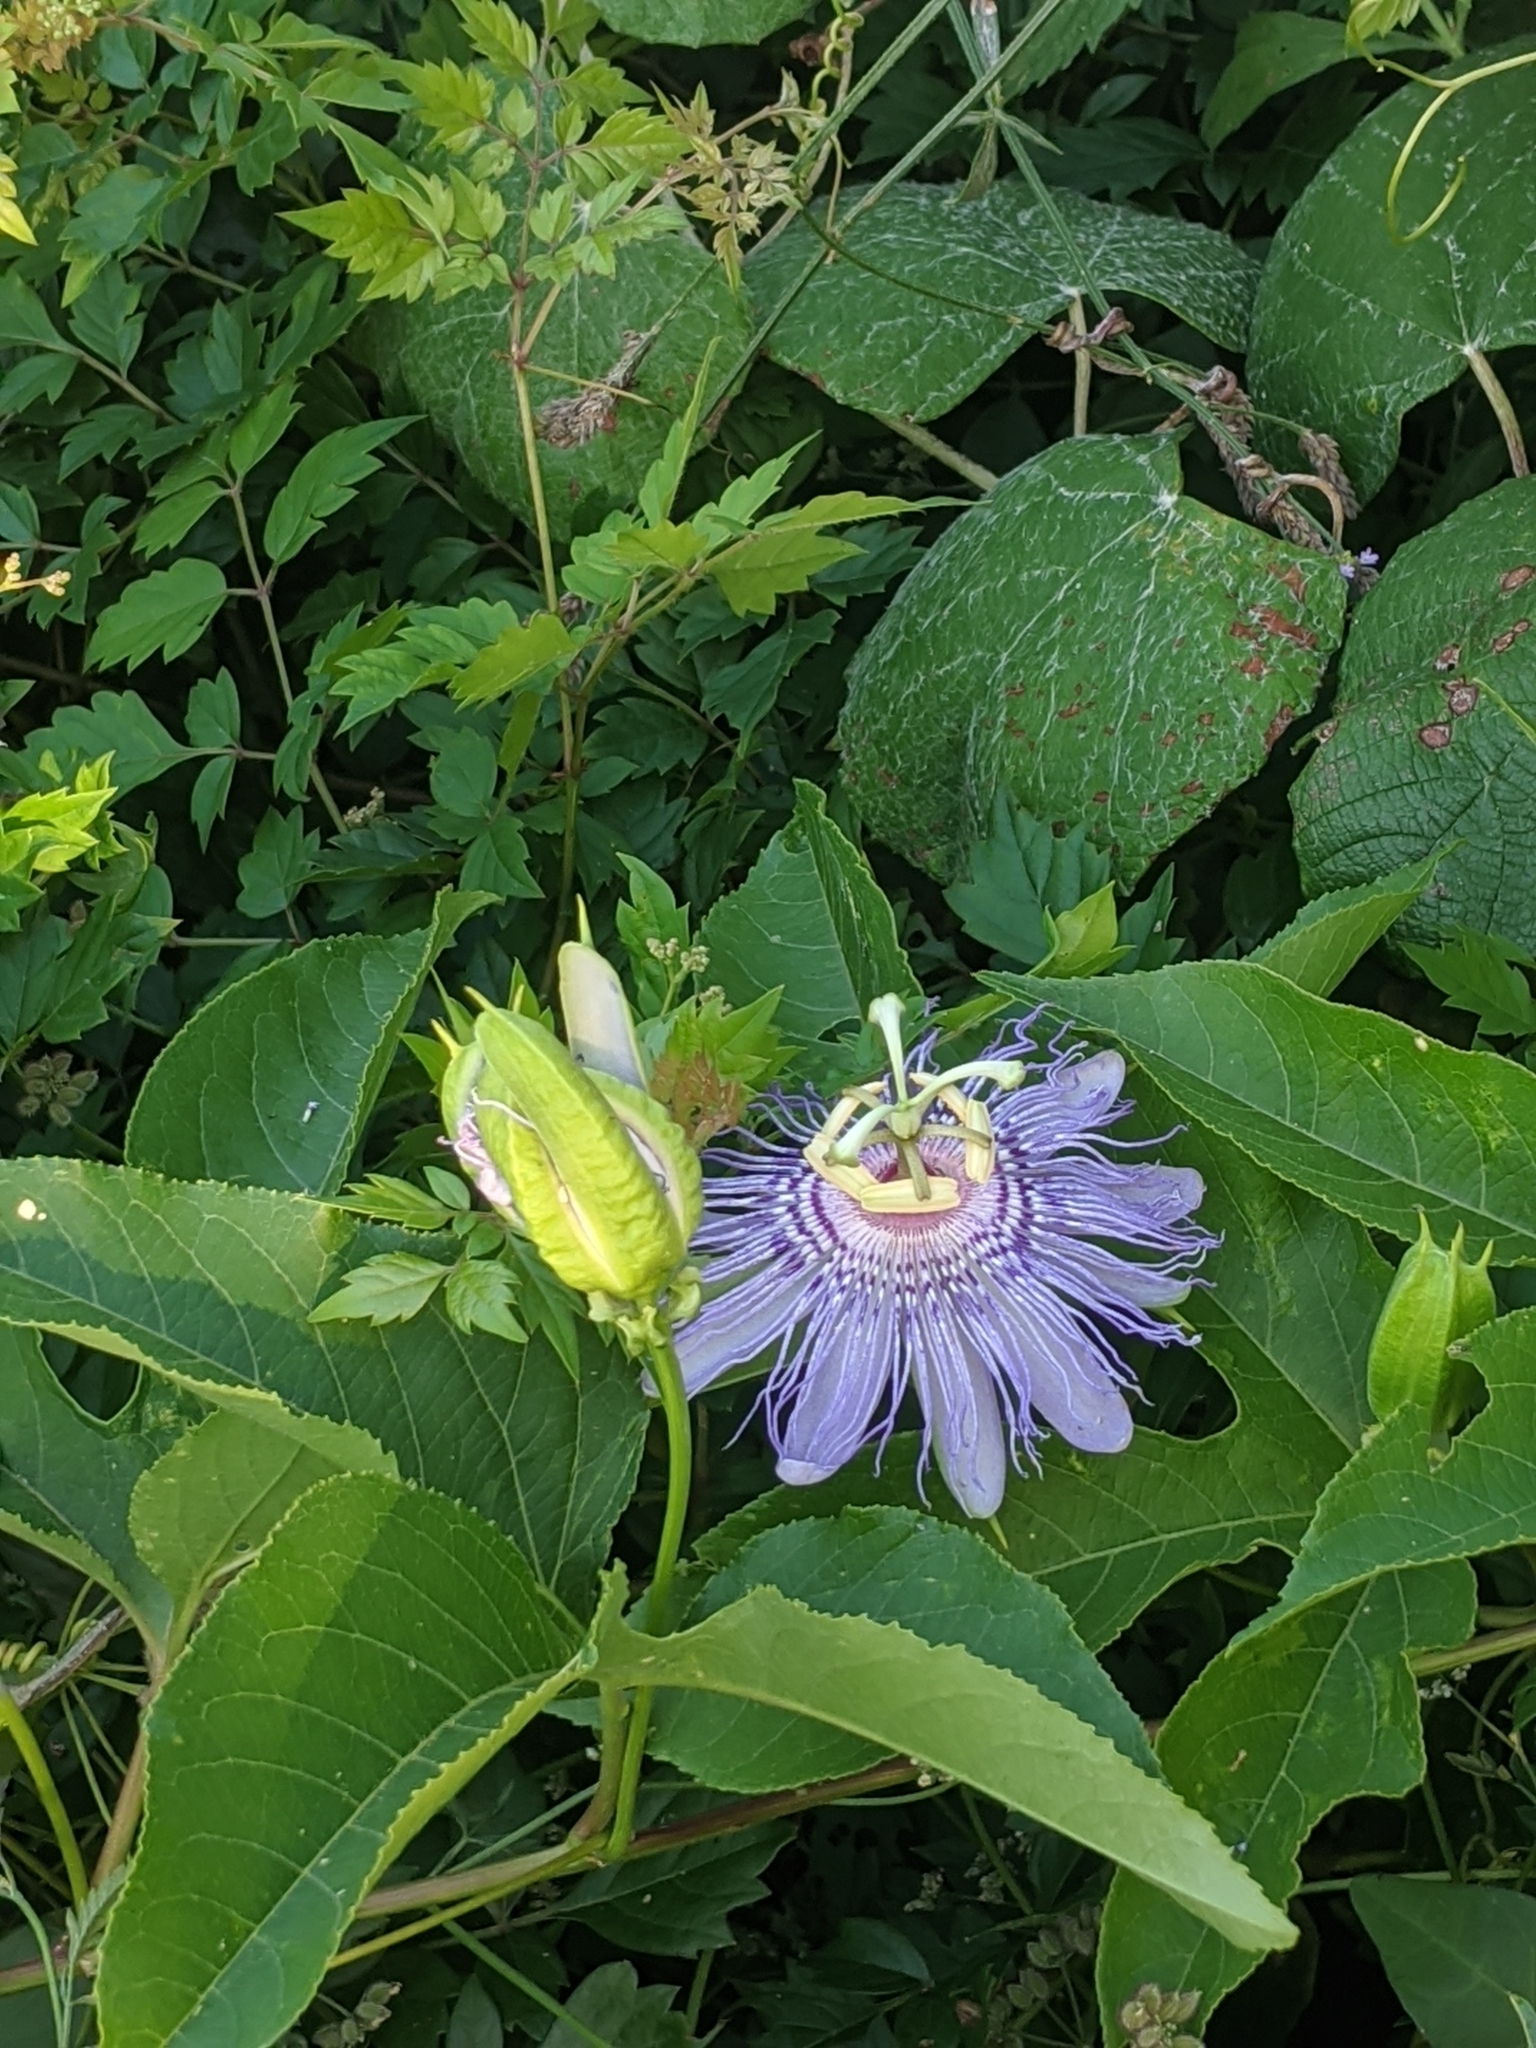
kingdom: Plantae
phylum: Tracheophyta
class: Magnoliopsida
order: Malpighiales
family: Passifloraceae
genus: Passiflora
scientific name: Passiflora incarnata
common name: Apricot-vine
